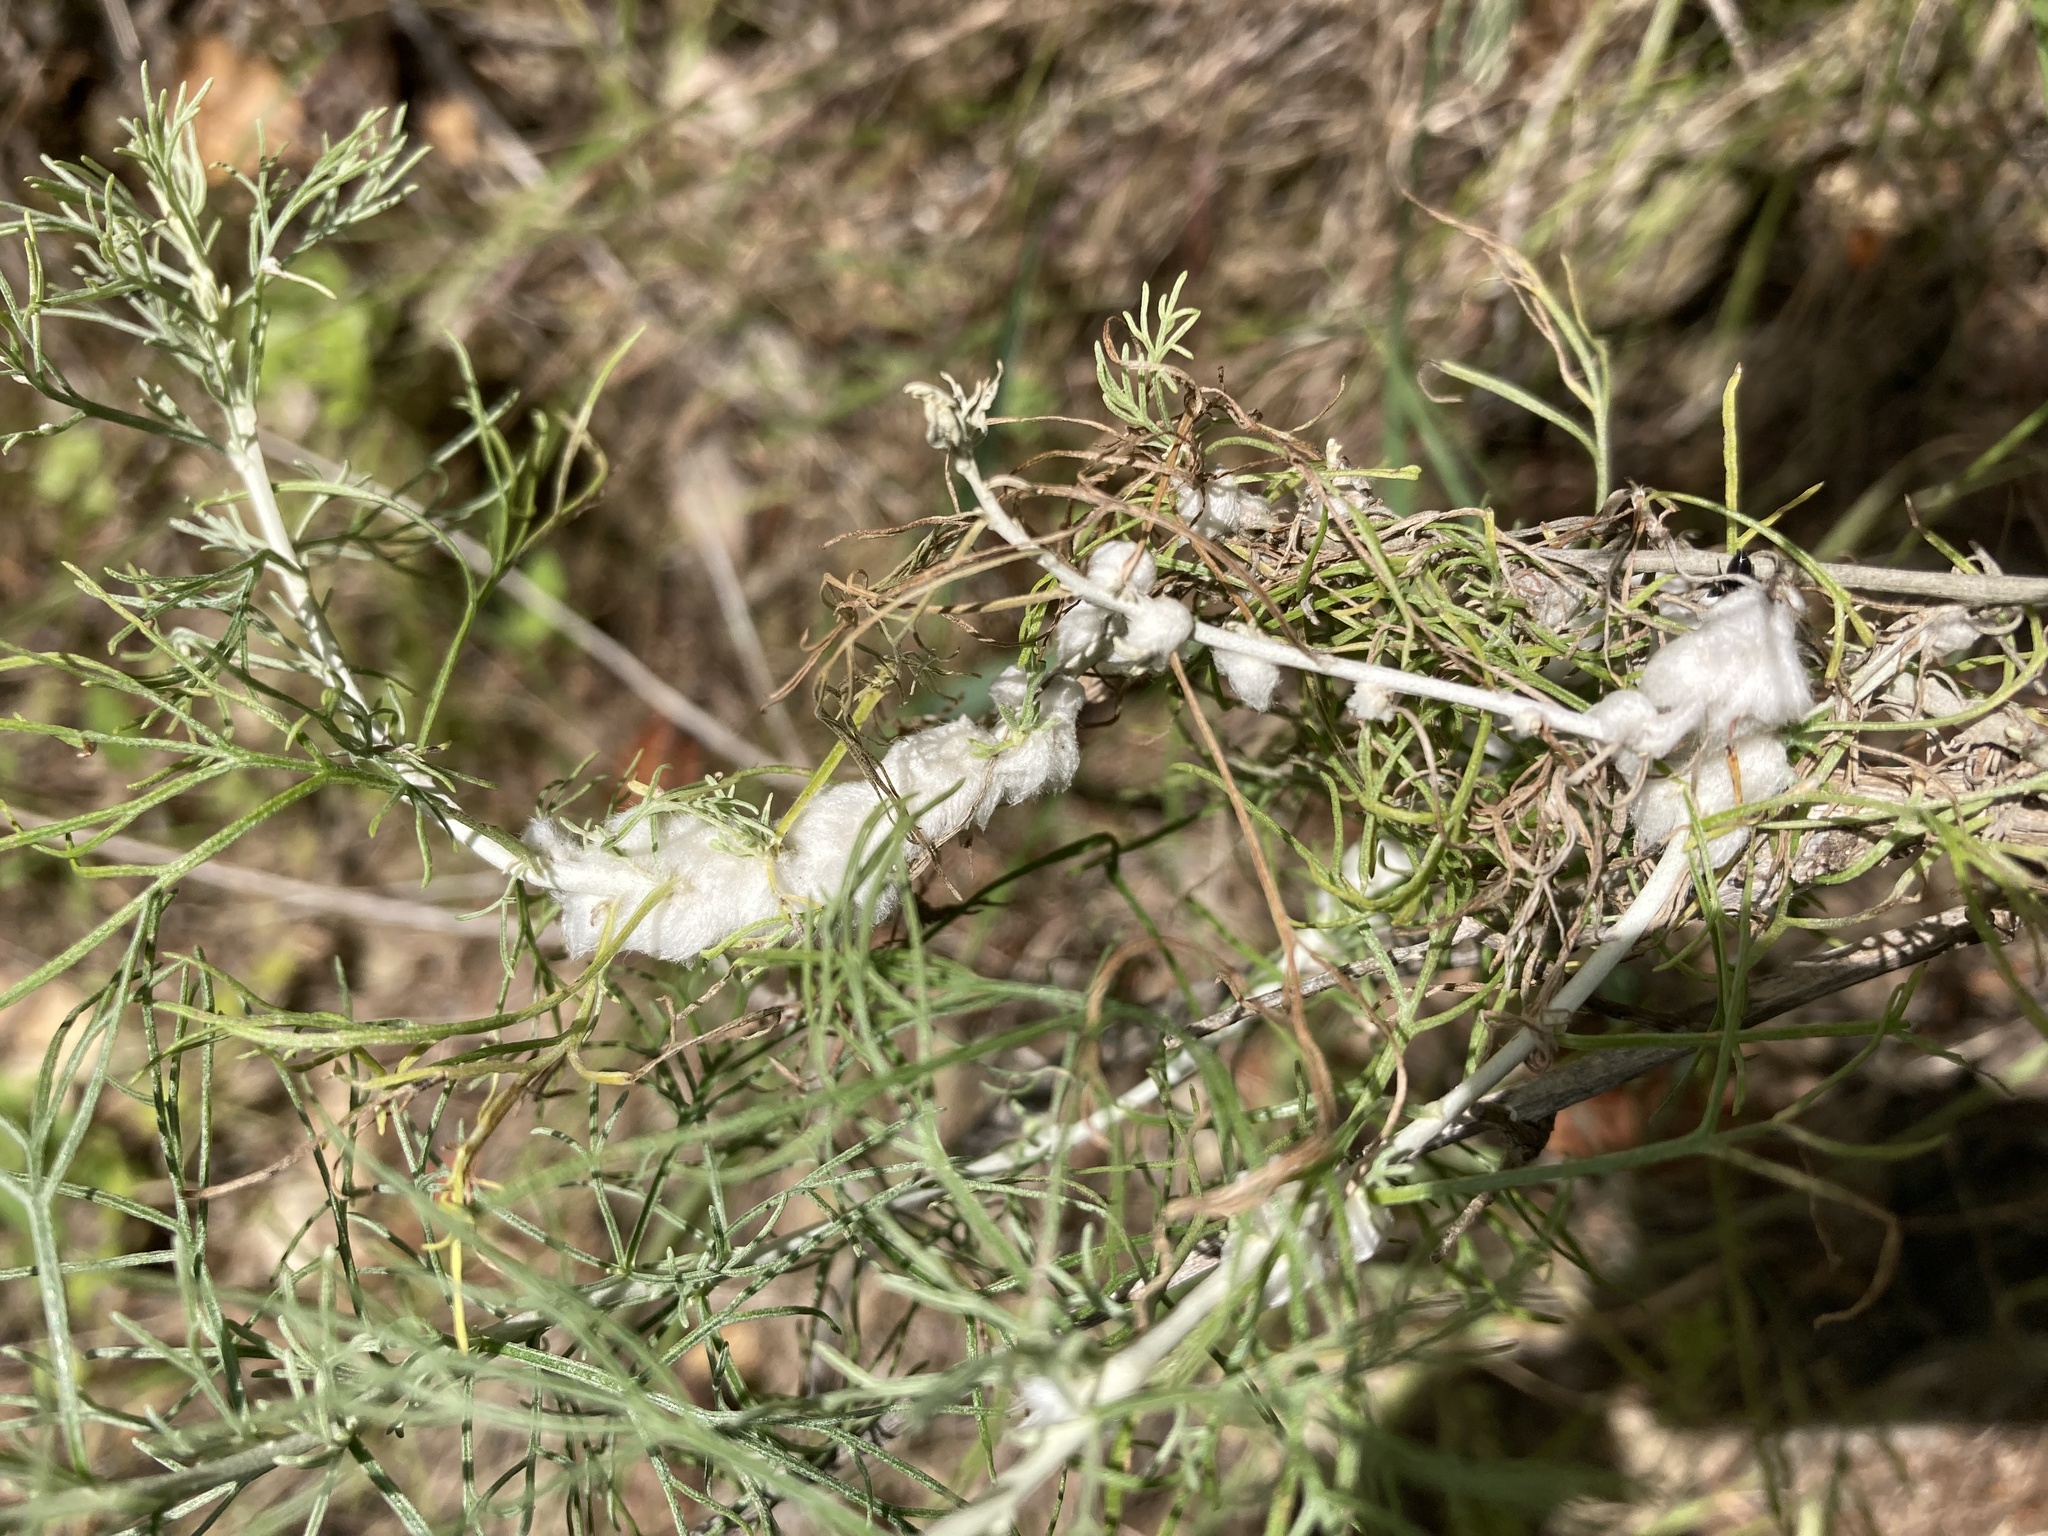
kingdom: Animalia
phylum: Arthropoda
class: Insecta
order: Diptera
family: Cecidomyiidae
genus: Rhopalomyia
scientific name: Rhopalomyia floccosa
